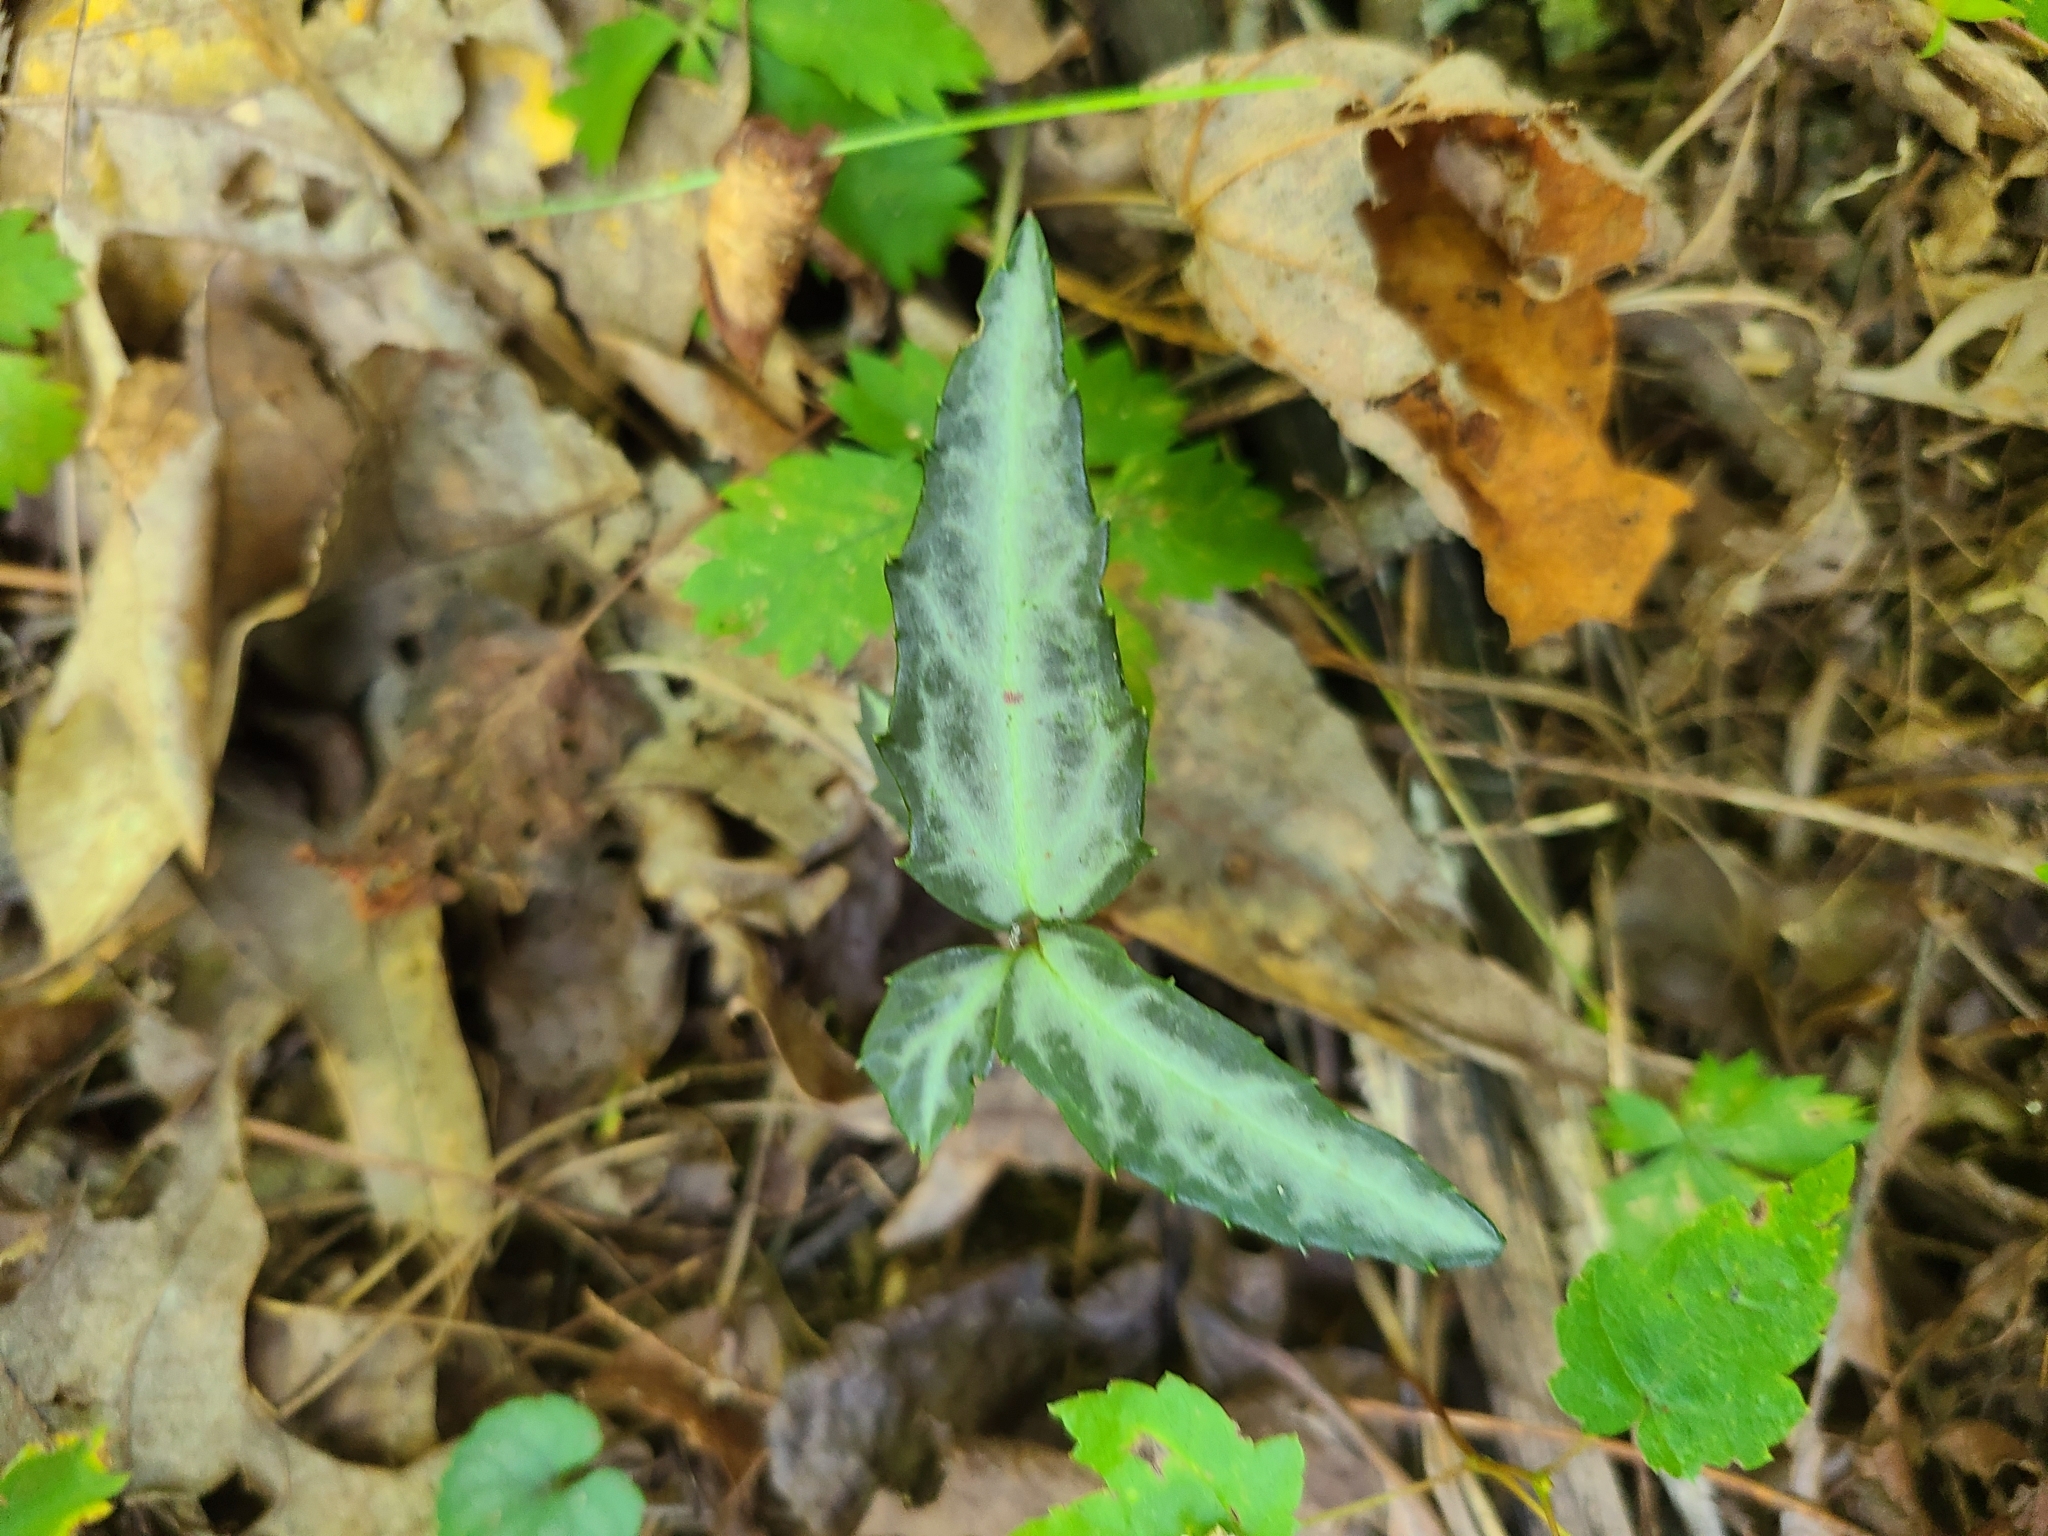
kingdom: Plantae
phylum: Tracheophyta
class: Magnoliopsida
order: Ericales
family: Ericaceae
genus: Chimaphila
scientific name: Chimaphila maculata
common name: Spotted pipsissewa
